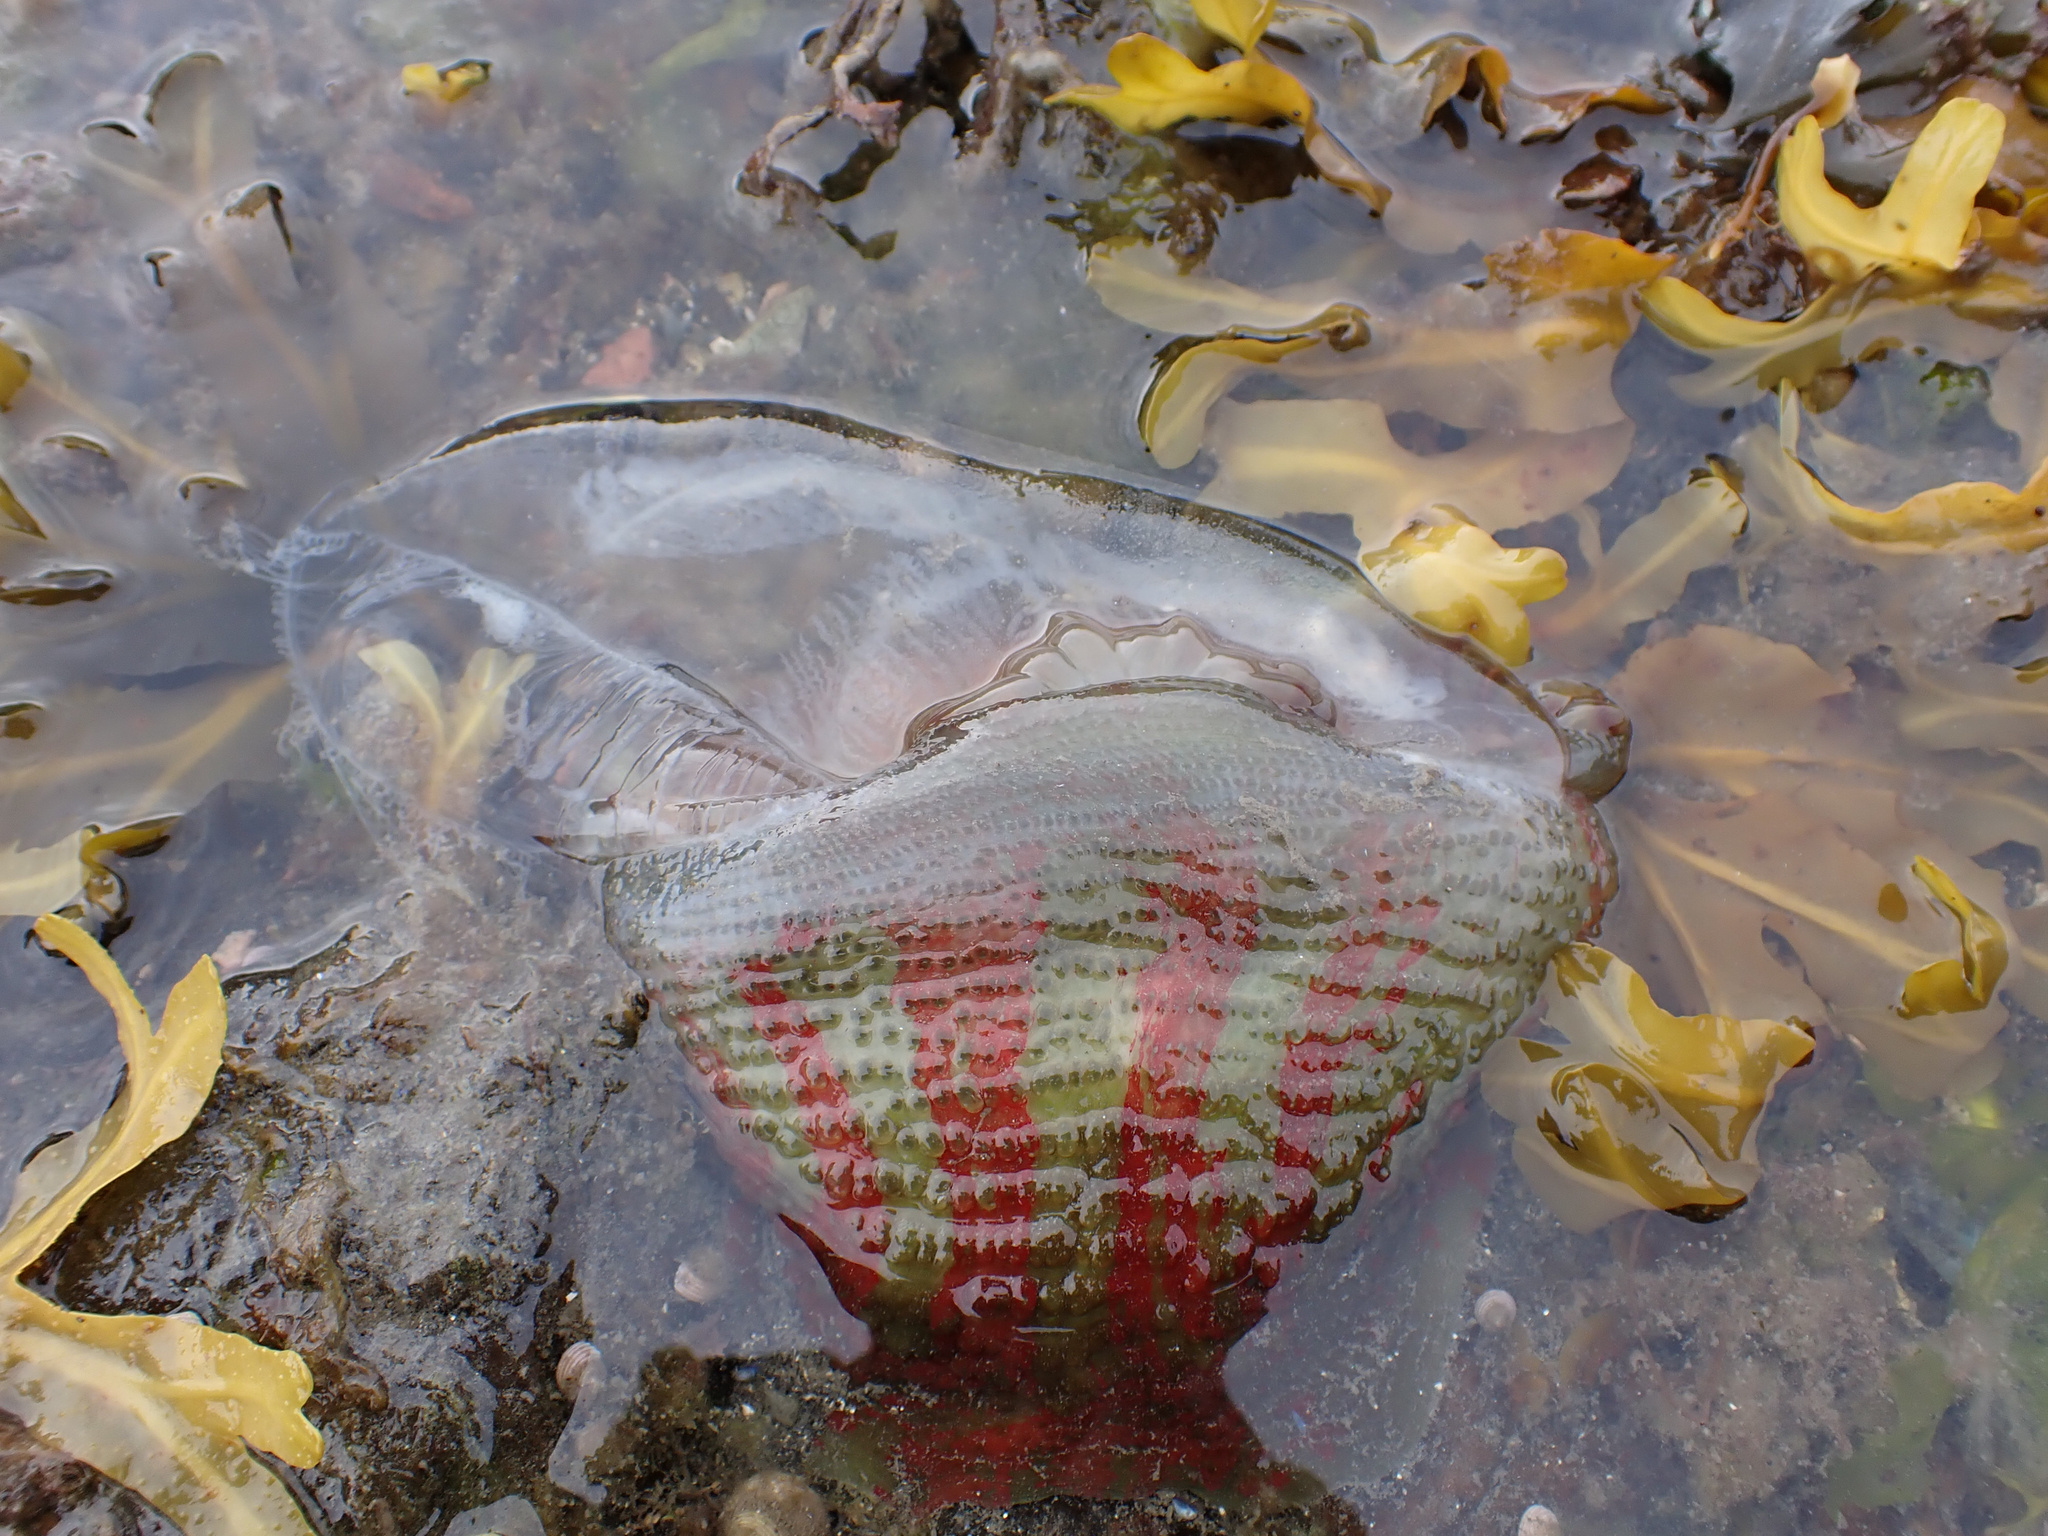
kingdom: Animalia
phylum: Cnidaria
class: Anthozoa
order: Actiniaria
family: Actiniidae
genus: Urticina
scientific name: Urticina grebelnyi
